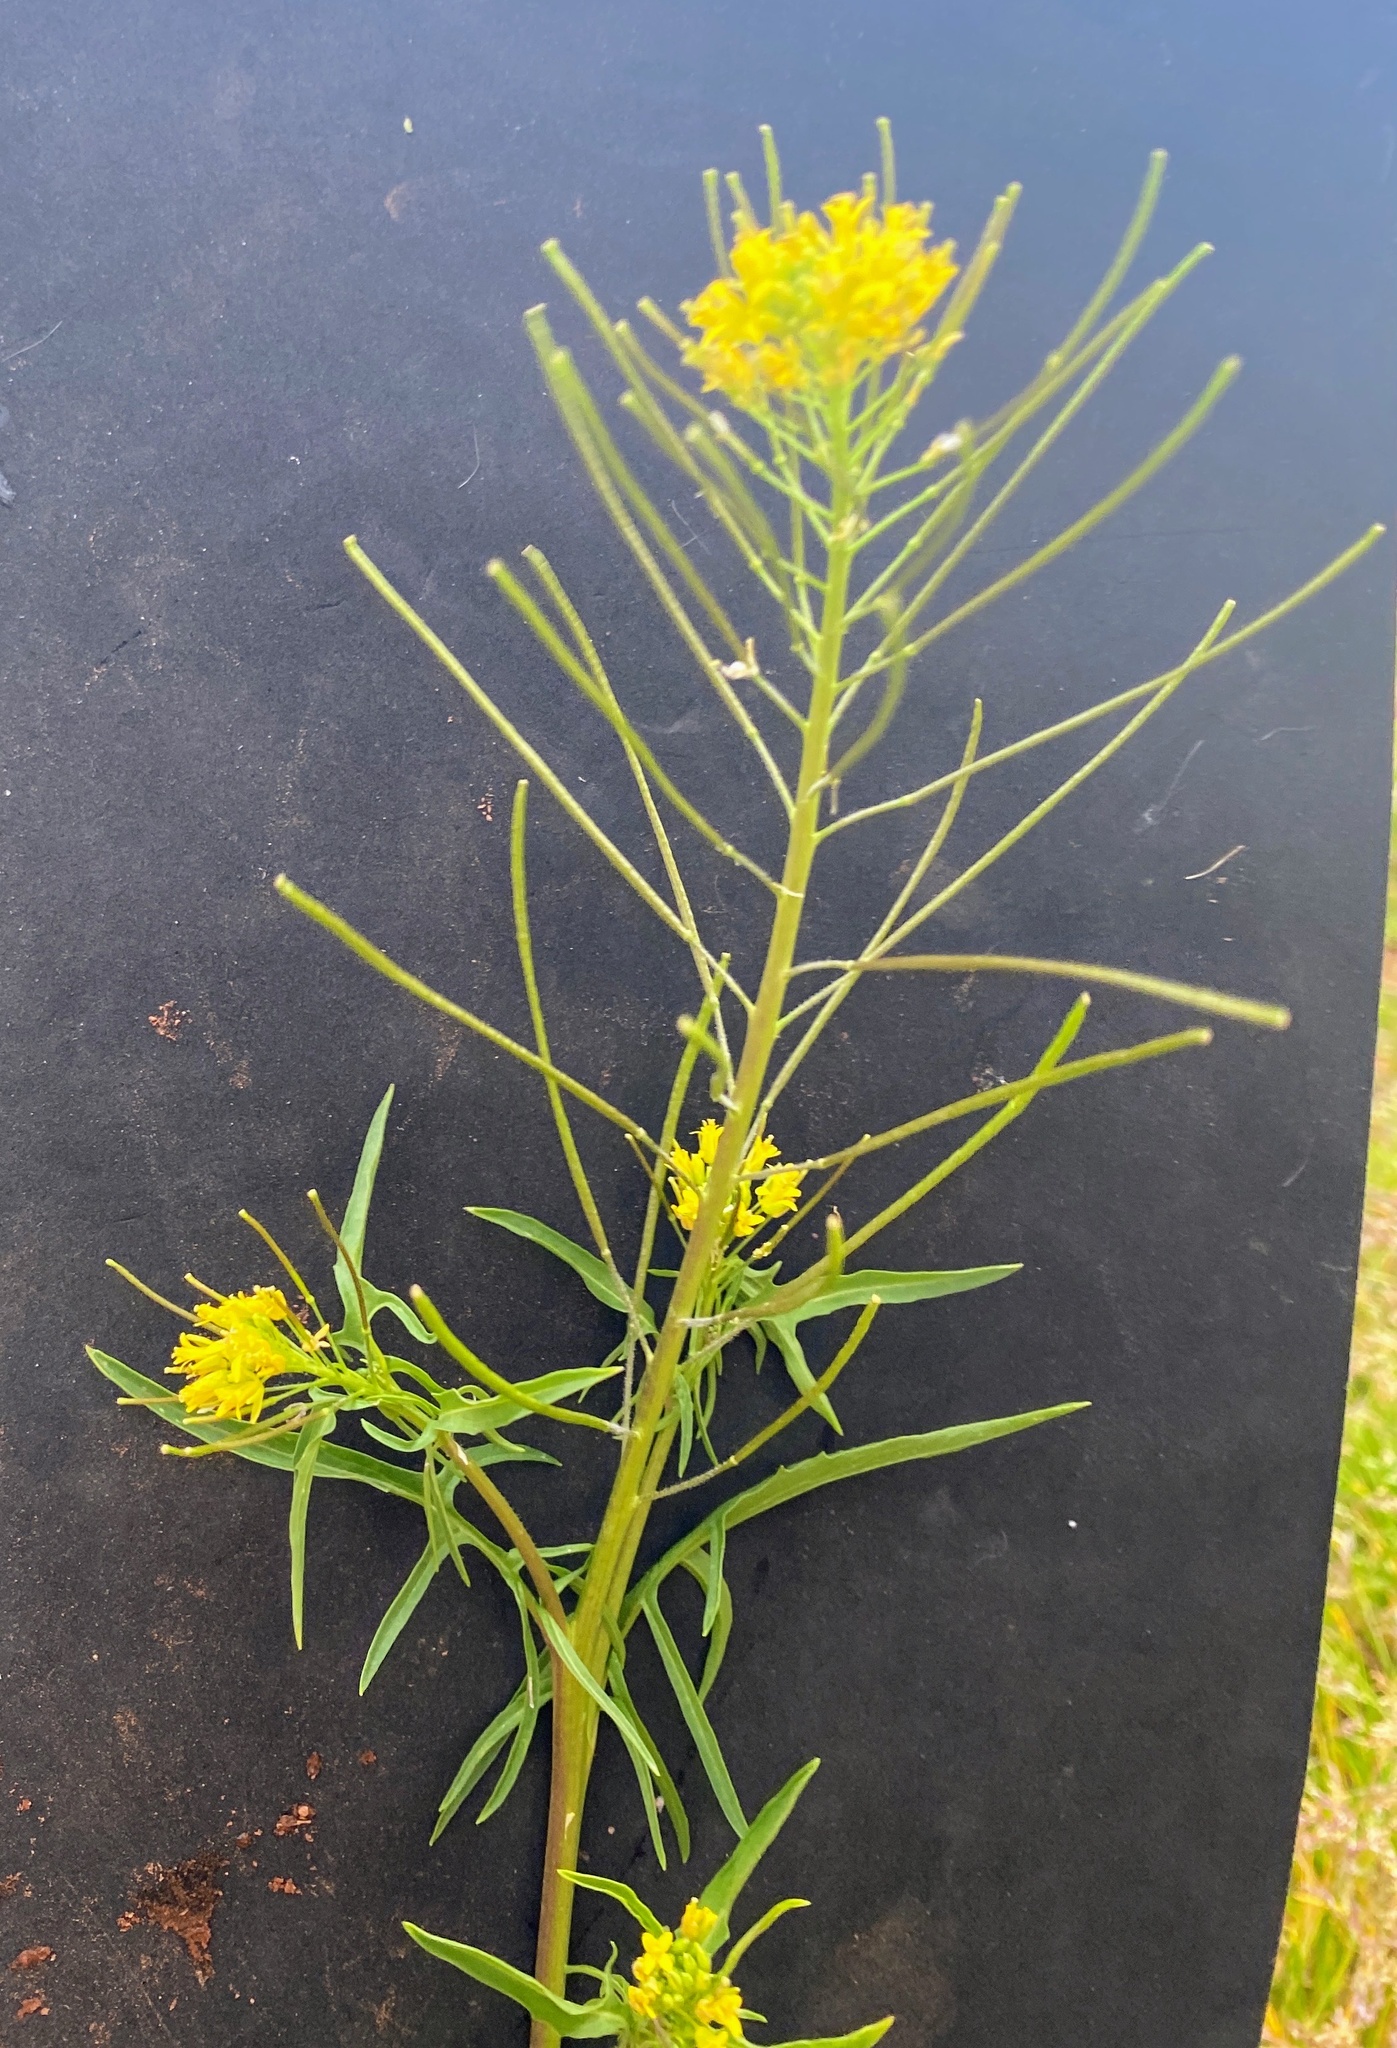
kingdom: Plantae
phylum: Tracheophyta
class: Magnoliopsida
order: Brassicales
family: Brassicaceae
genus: Sisymbrium
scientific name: Sisymbrium irio
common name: London rocket
